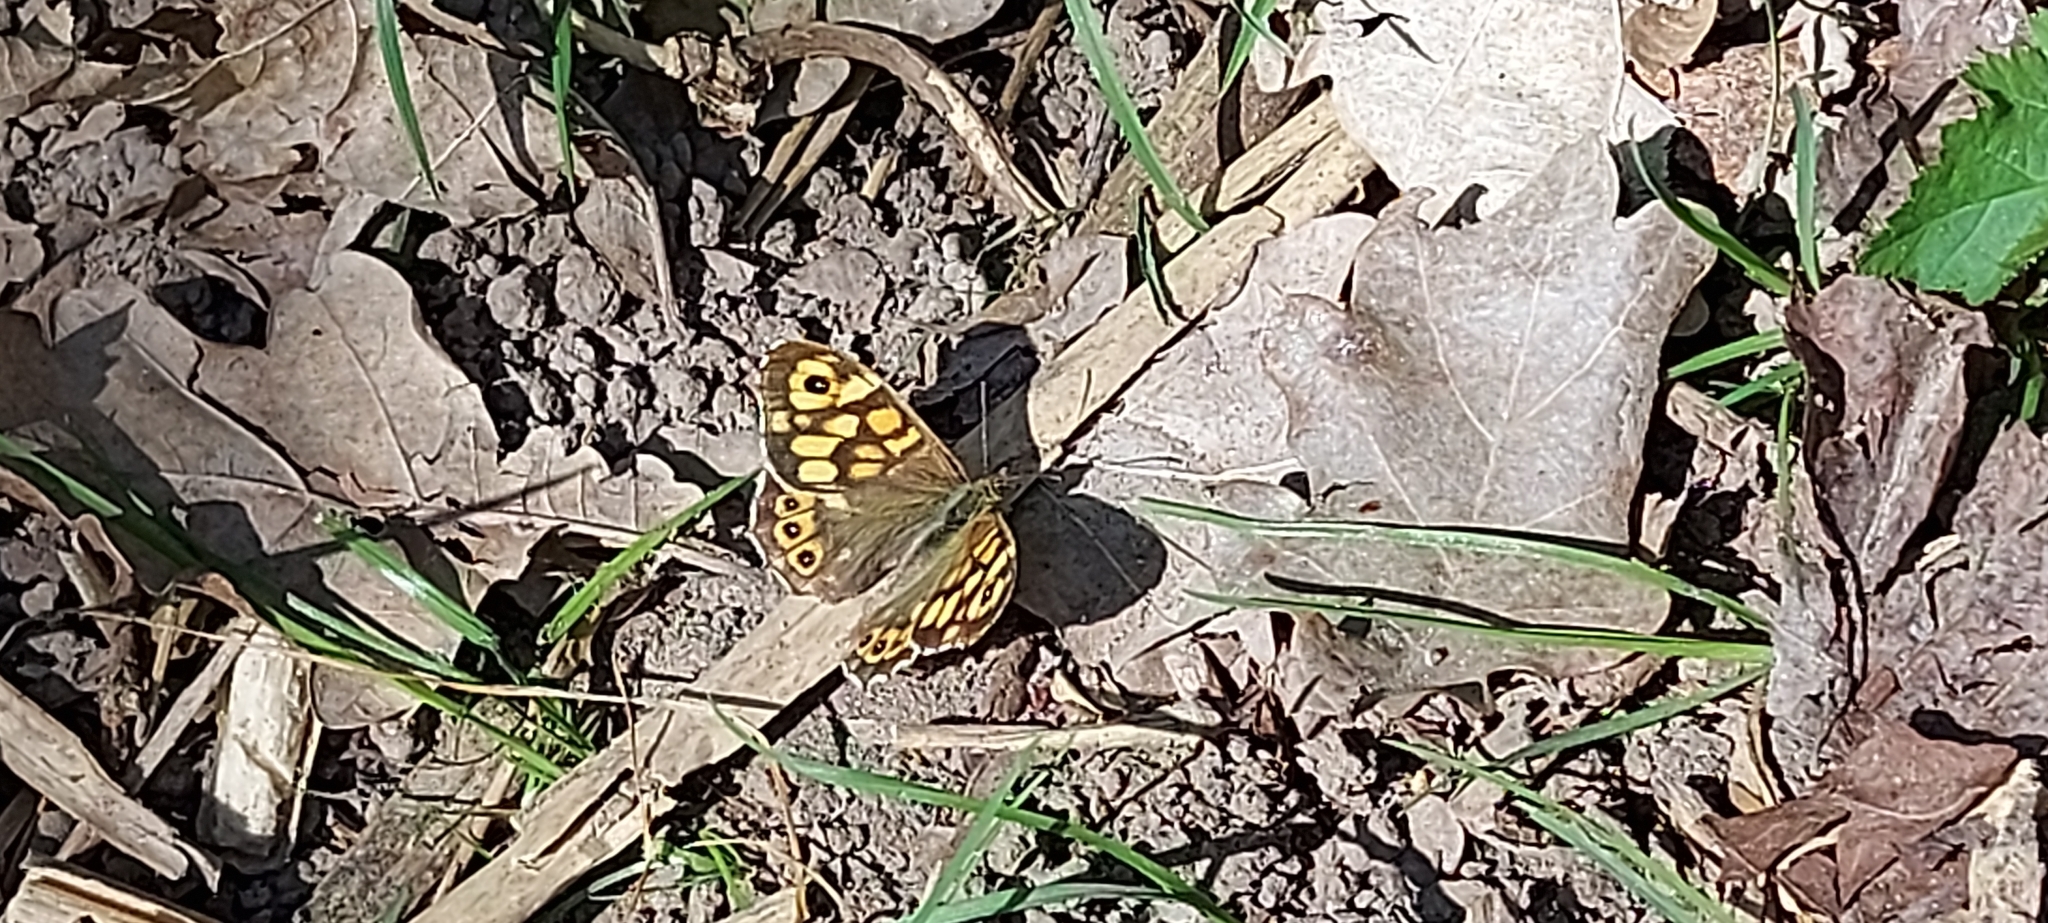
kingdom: Animalia
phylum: Arthropoda
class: Insecta
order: Lepidoptera
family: Nymphalidae
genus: Pararge
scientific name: Pararge aegeria
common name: Speckled wood
